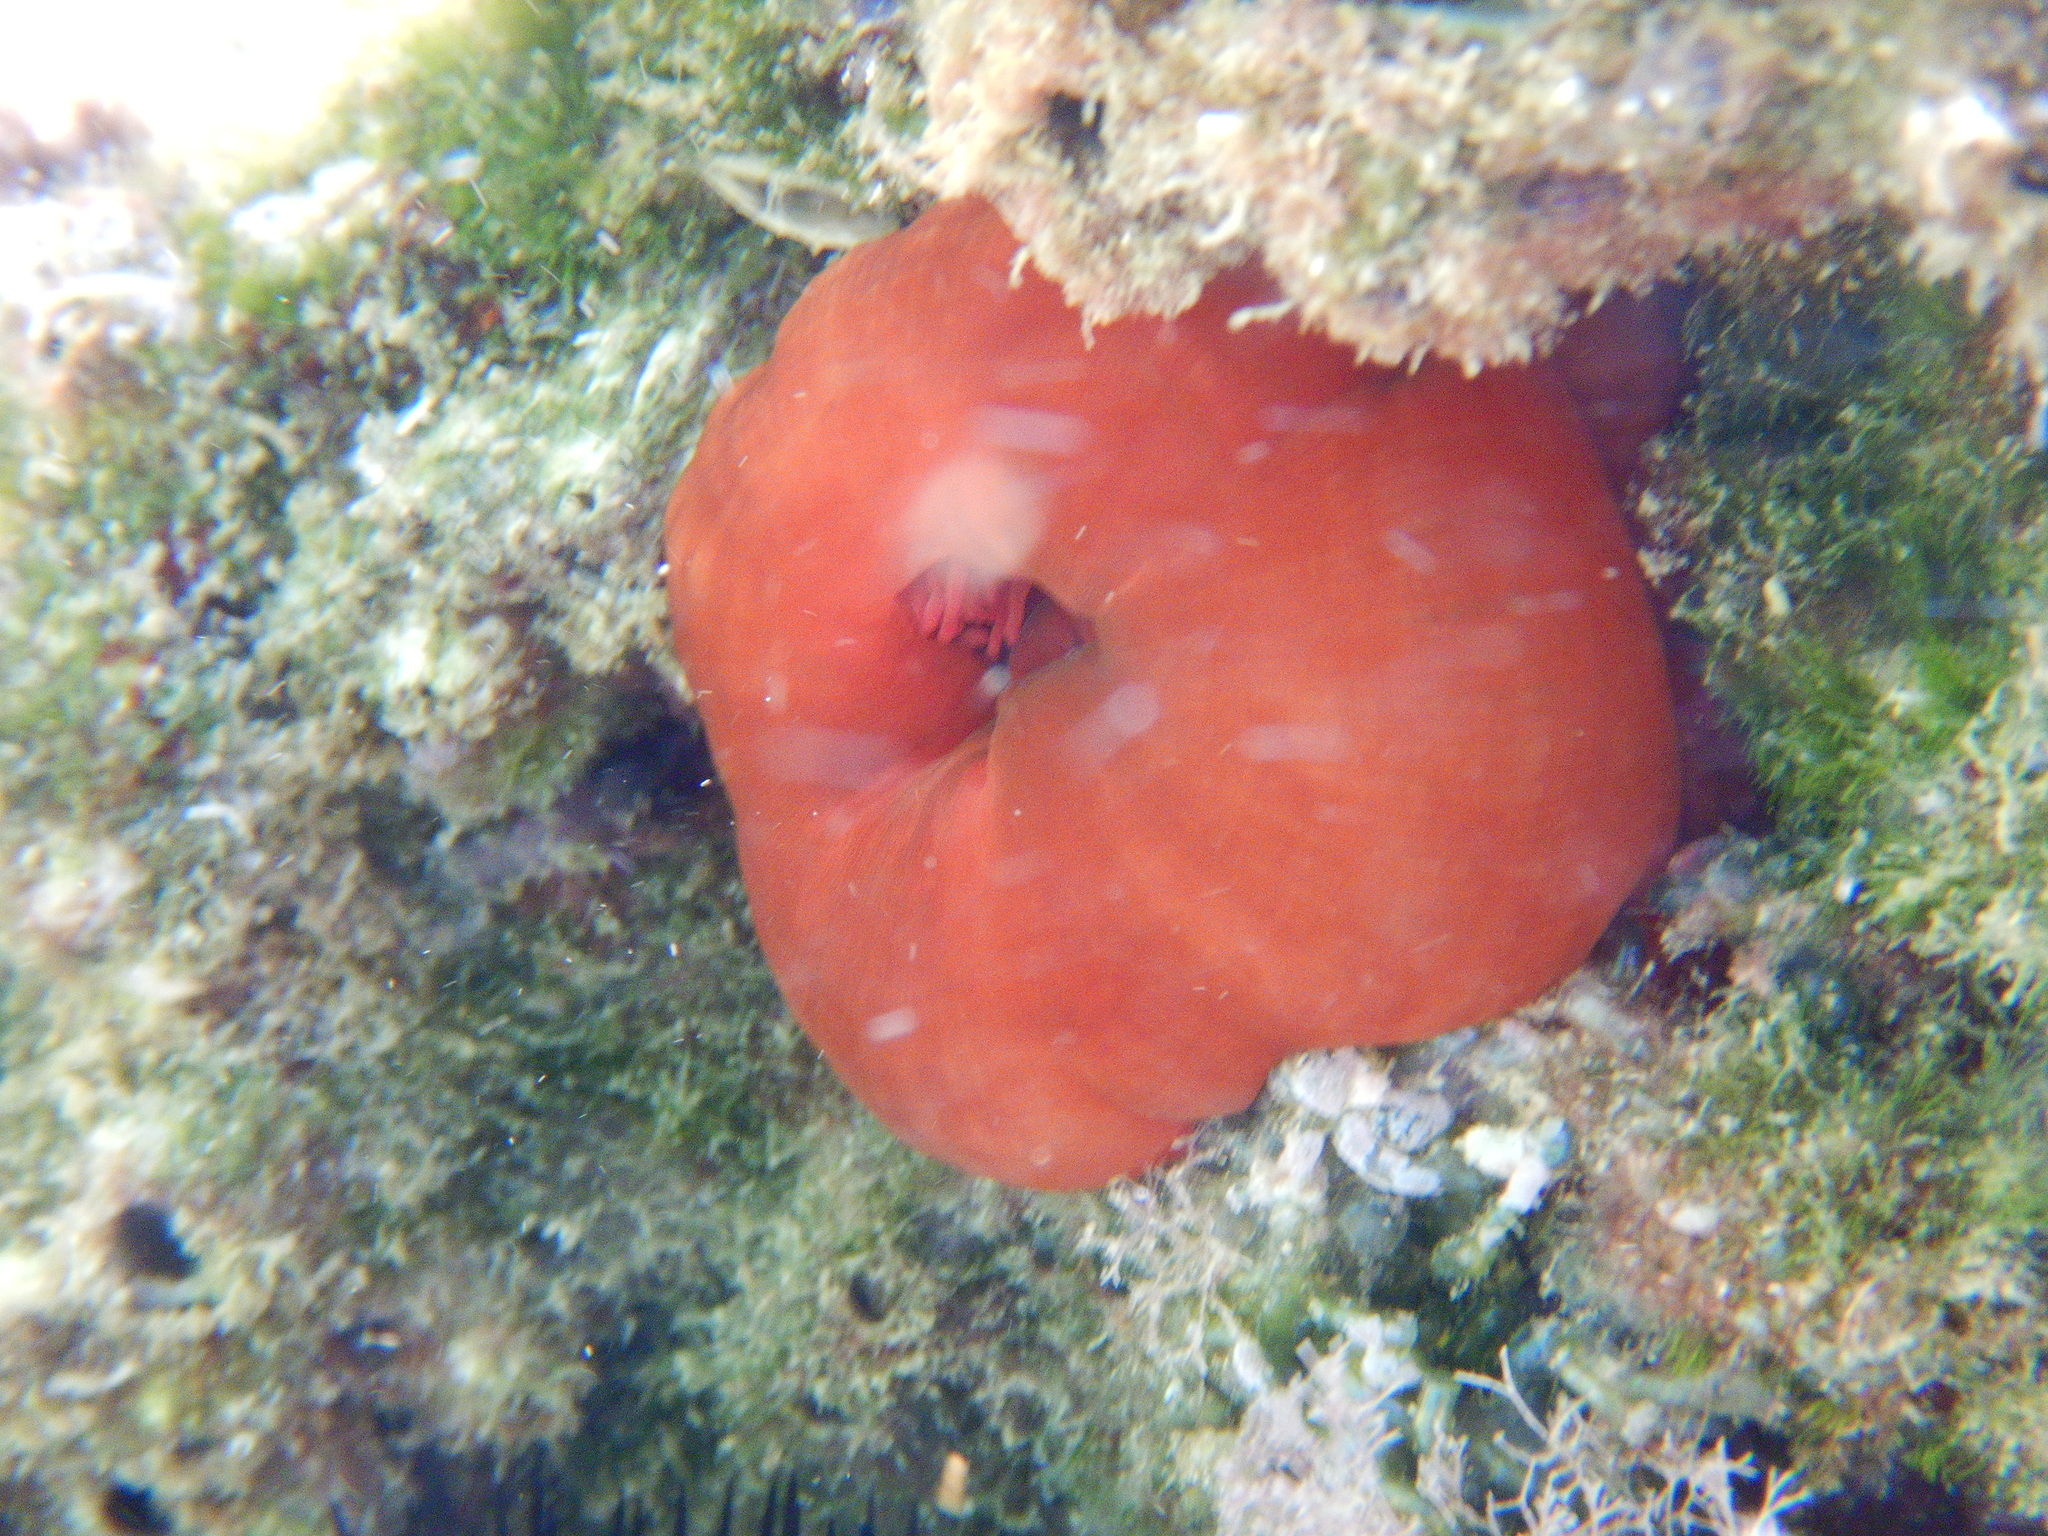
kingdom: Animalia
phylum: Cnidaria
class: Anthozoa
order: Actiniaria
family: Actiniidae
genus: Actinia
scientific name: Actinia mediterranea
